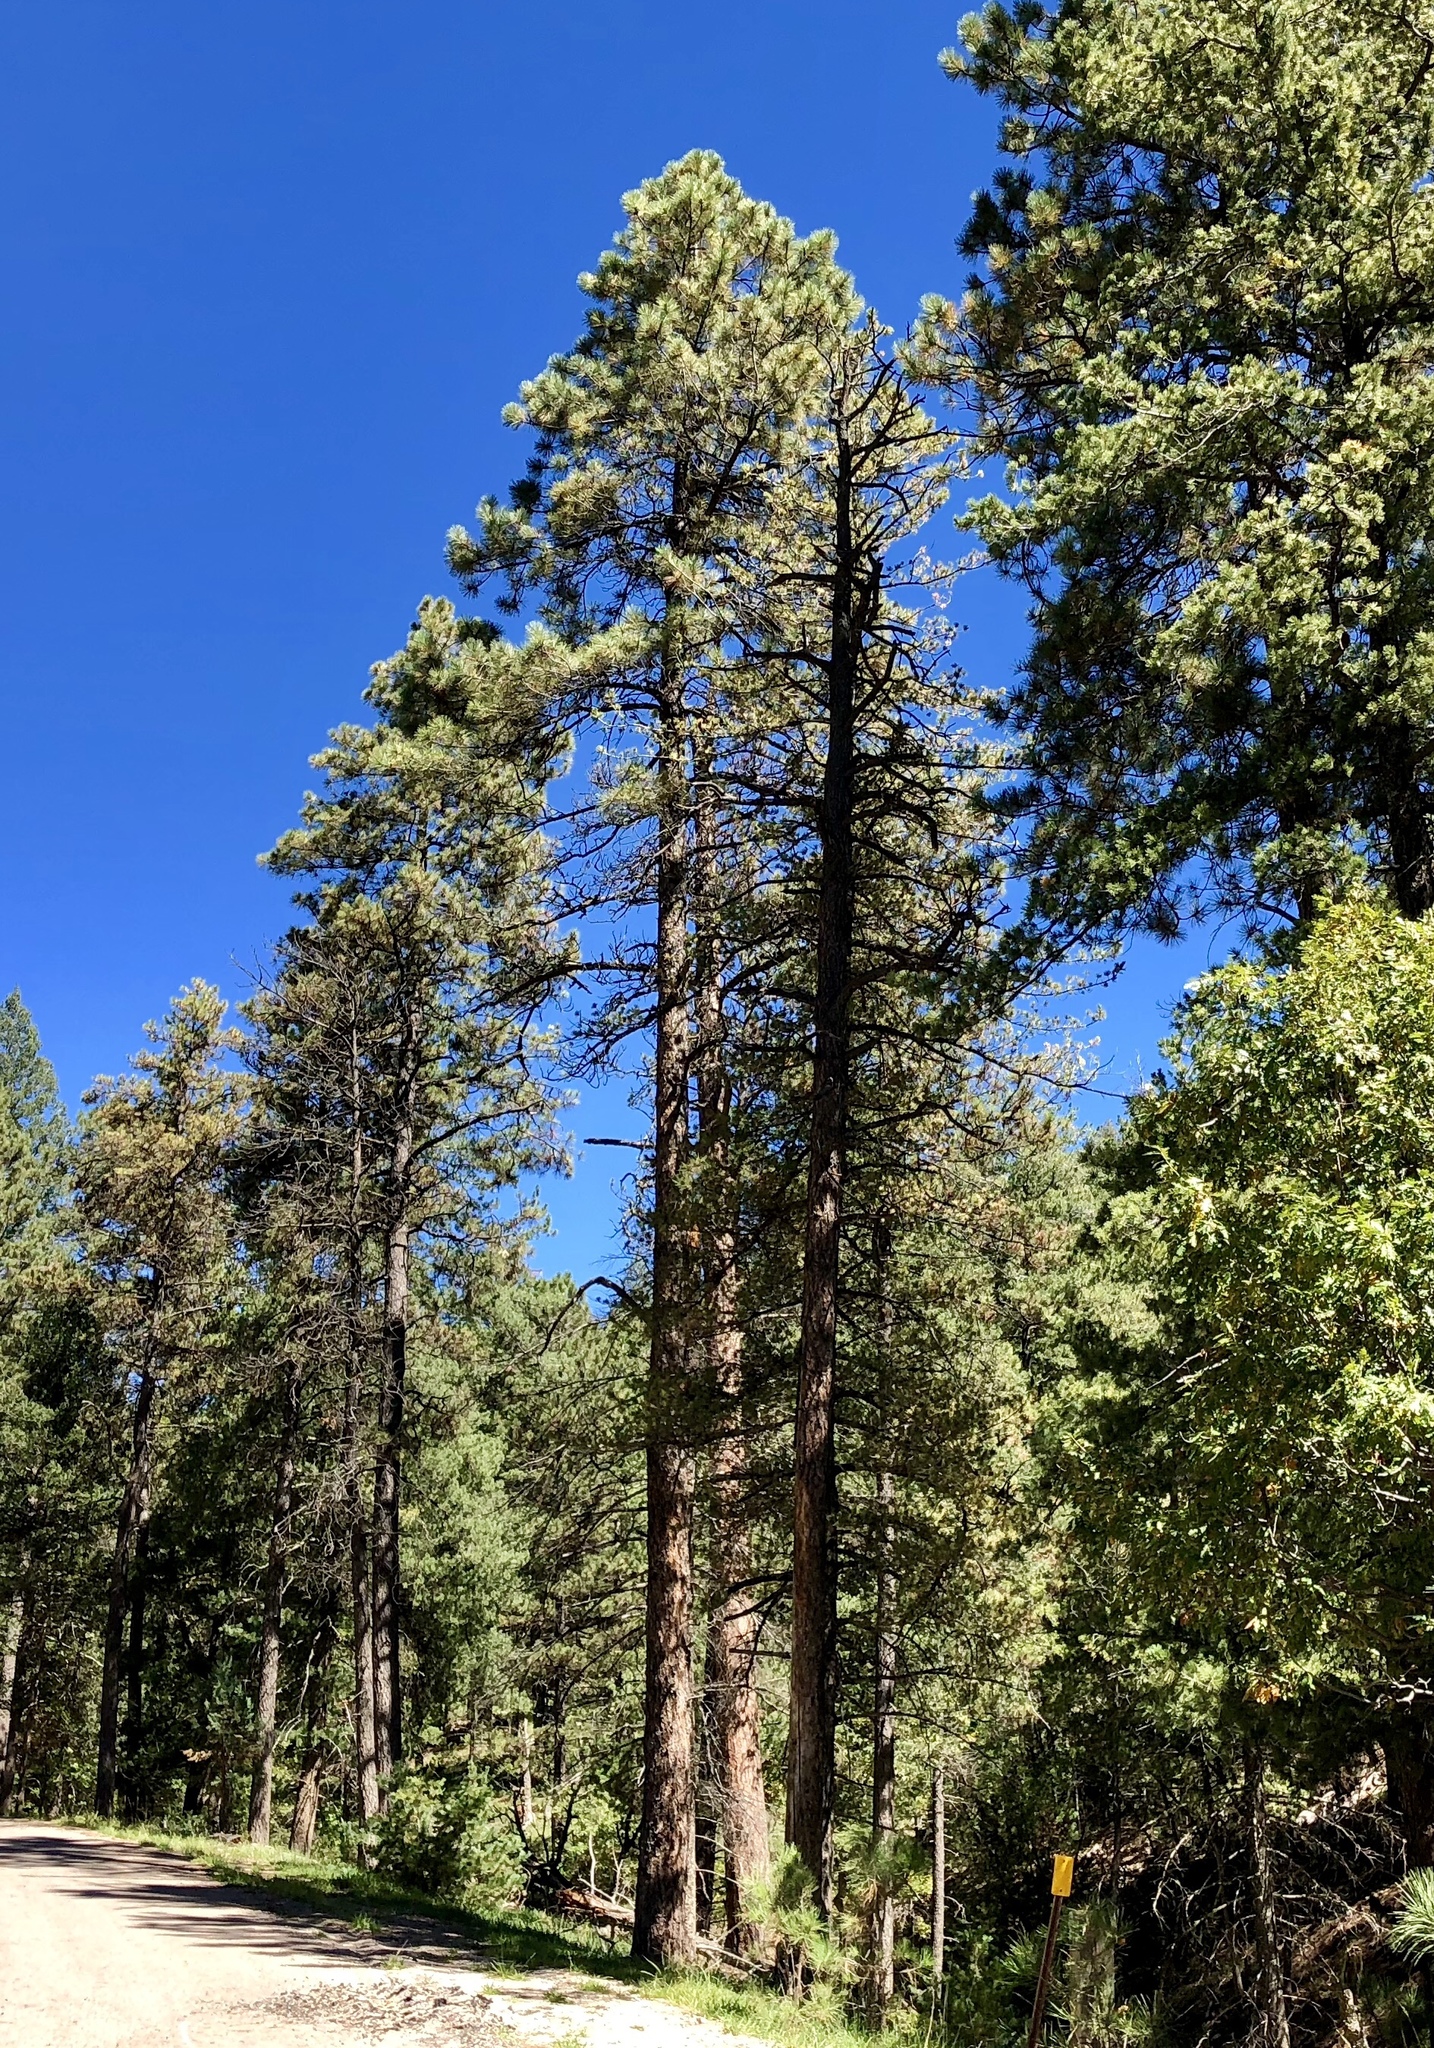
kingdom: Plantae
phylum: Tracheophyta
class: Pinopsida
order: Pinales
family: Pinaceae
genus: Pinus
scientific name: Pinus ponderosa
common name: Western yellow-pine
